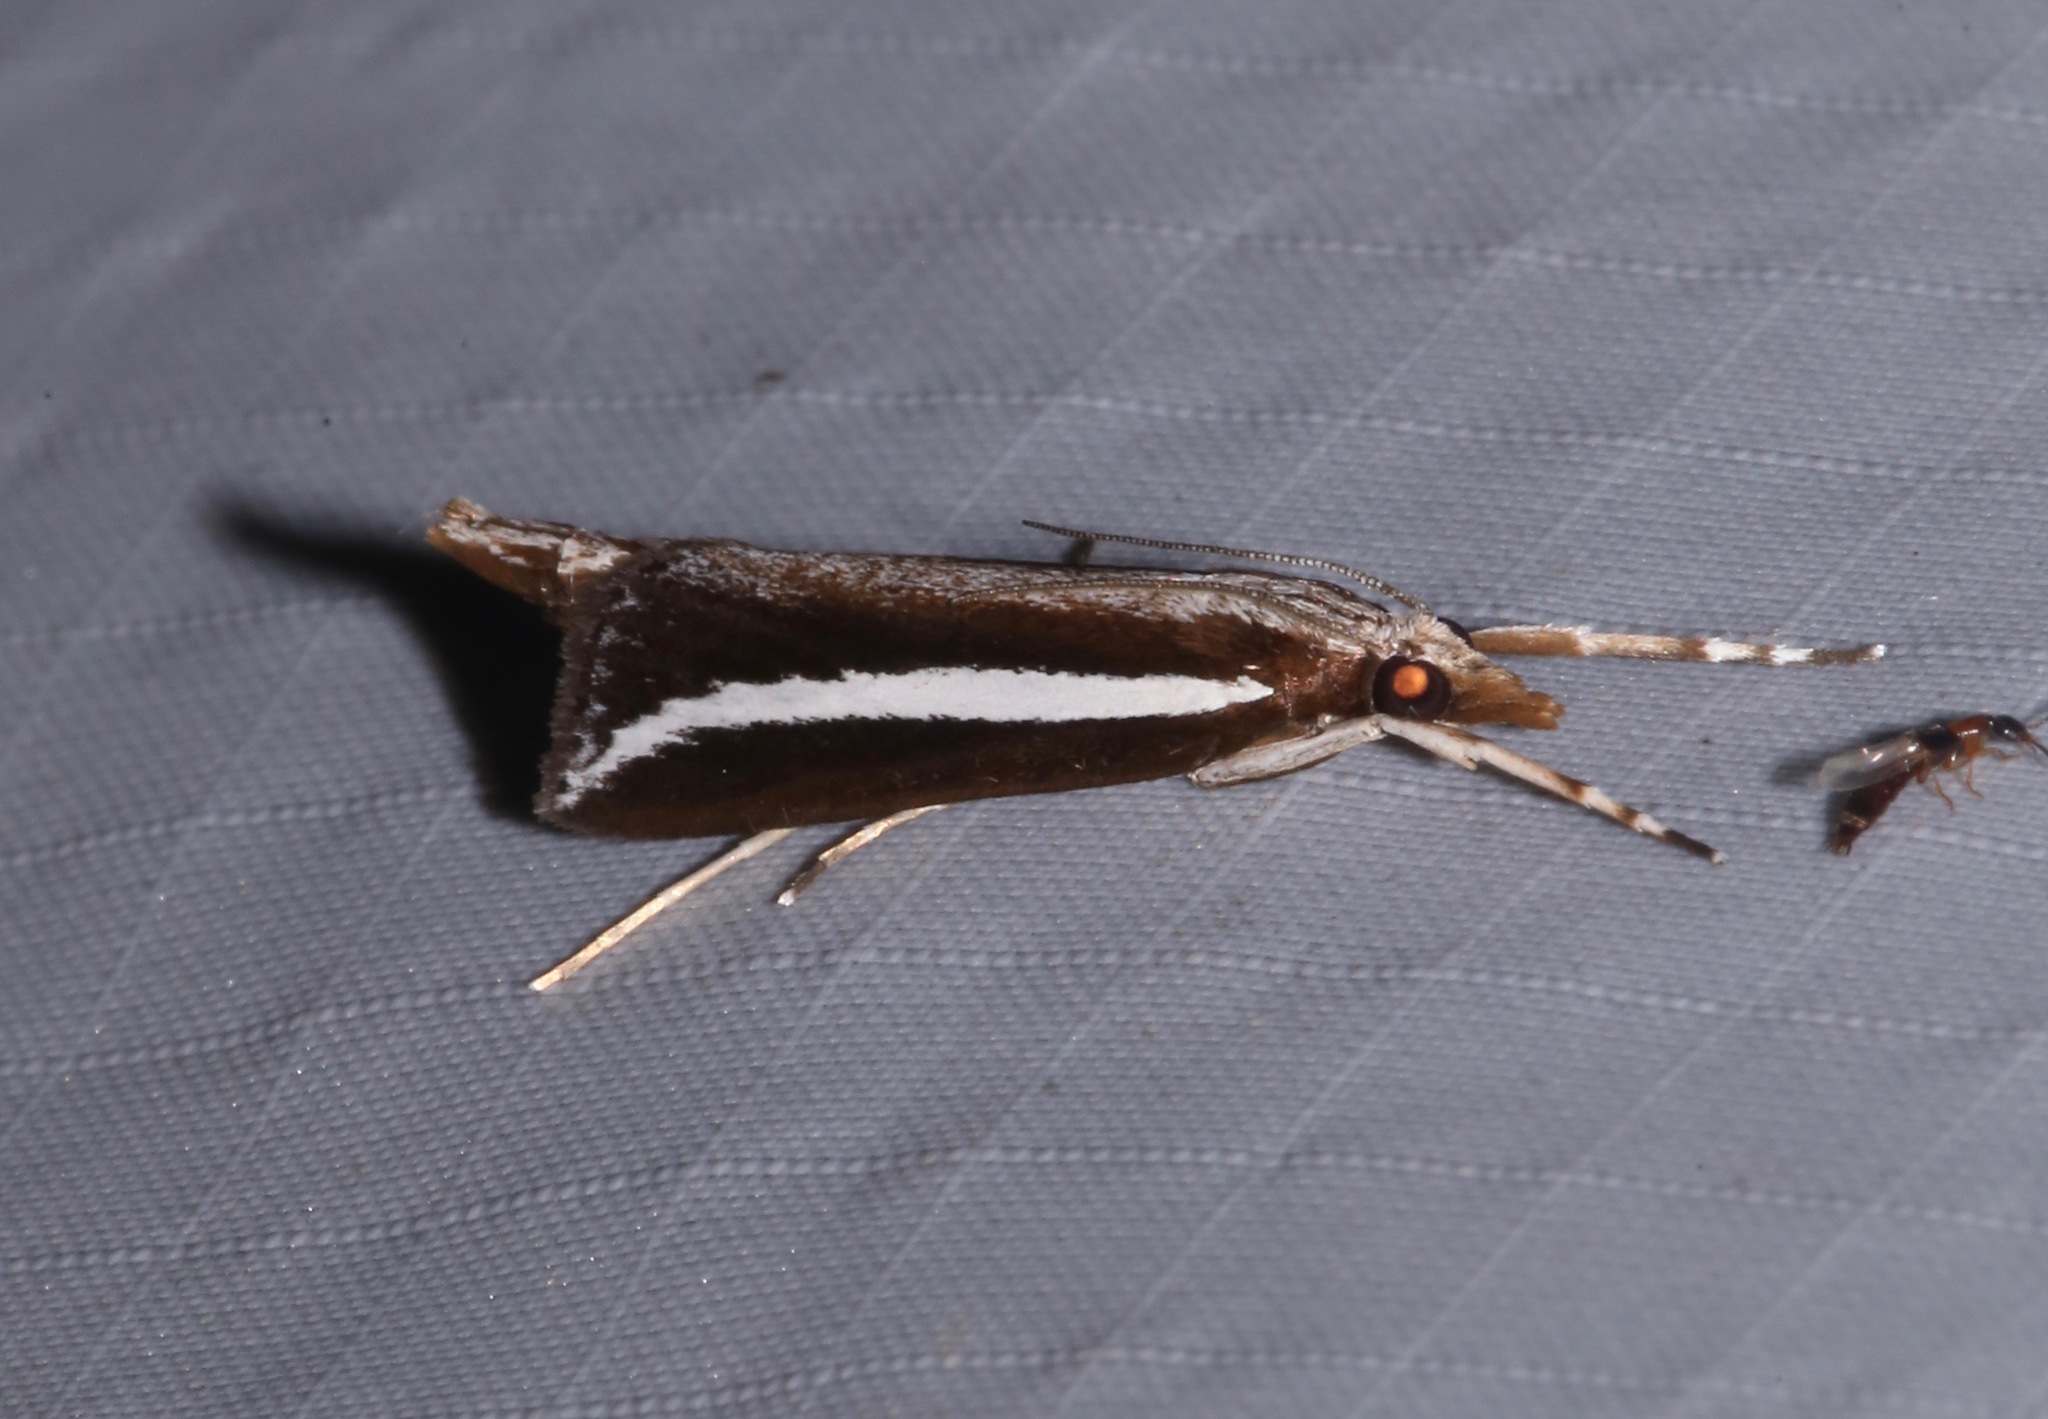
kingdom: Animalia
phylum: Arthropoda
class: Insecta
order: Lepidoptera
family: Crambidae
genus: Carectocultus
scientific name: Carectocultus perstrialis
